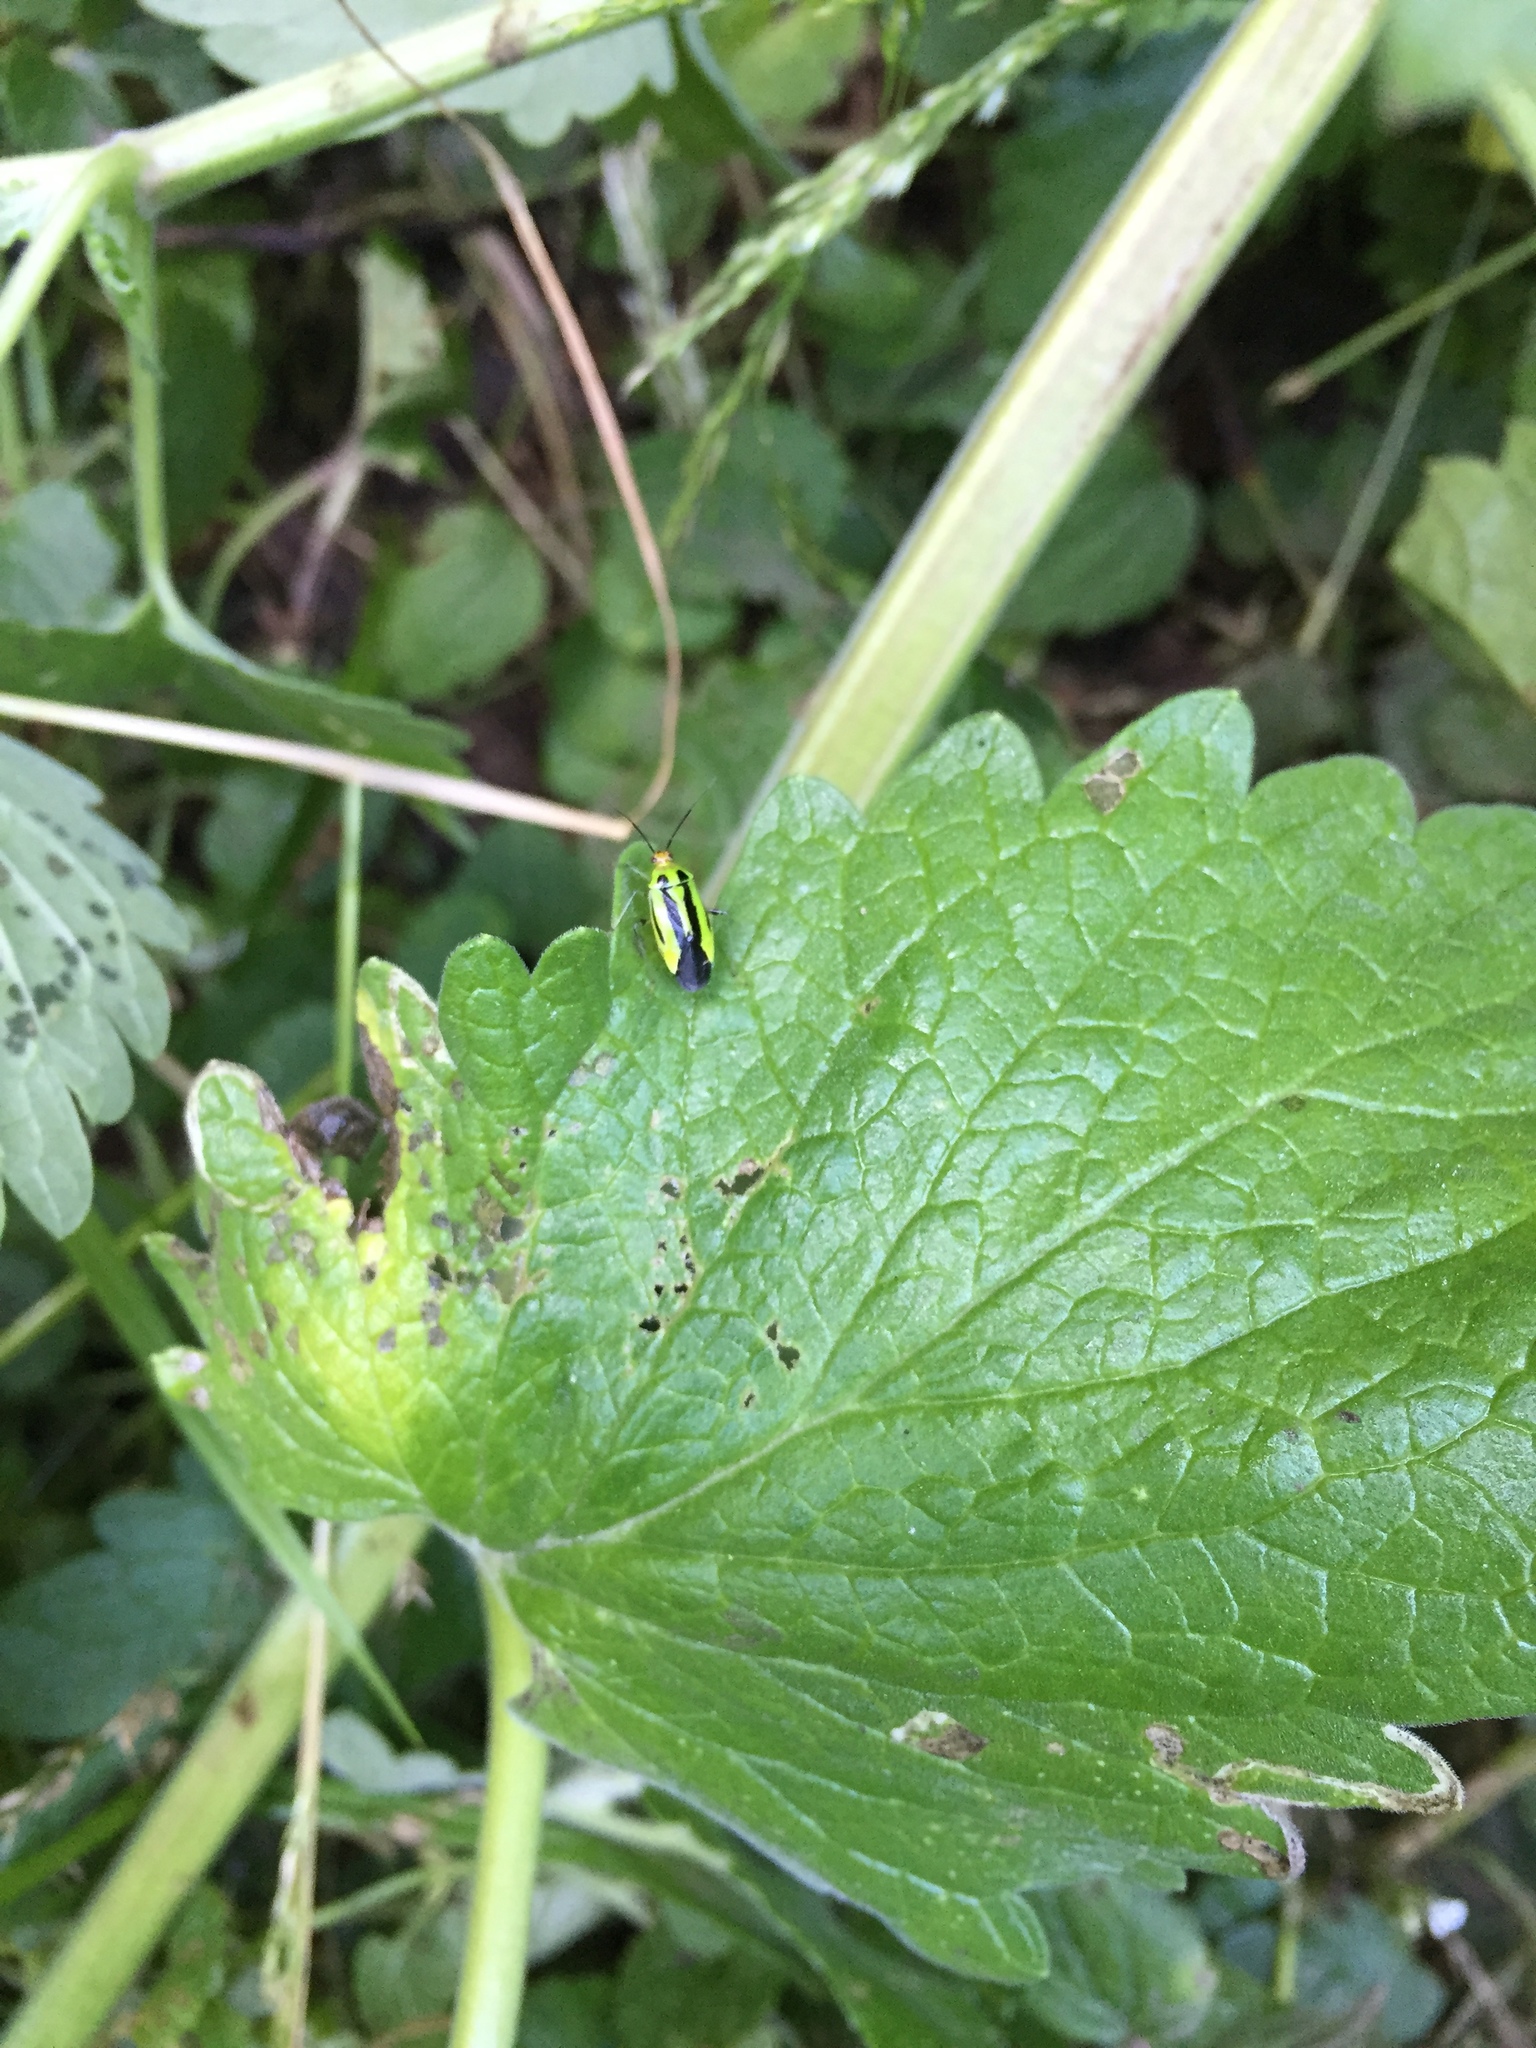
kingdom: Animalia
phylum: Arthropoda
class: Insecta
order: Hemiptera
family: Miridae
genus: Poecilocapsus
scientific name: Poecilocapsus lineatus
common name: Four-lined plant bug
